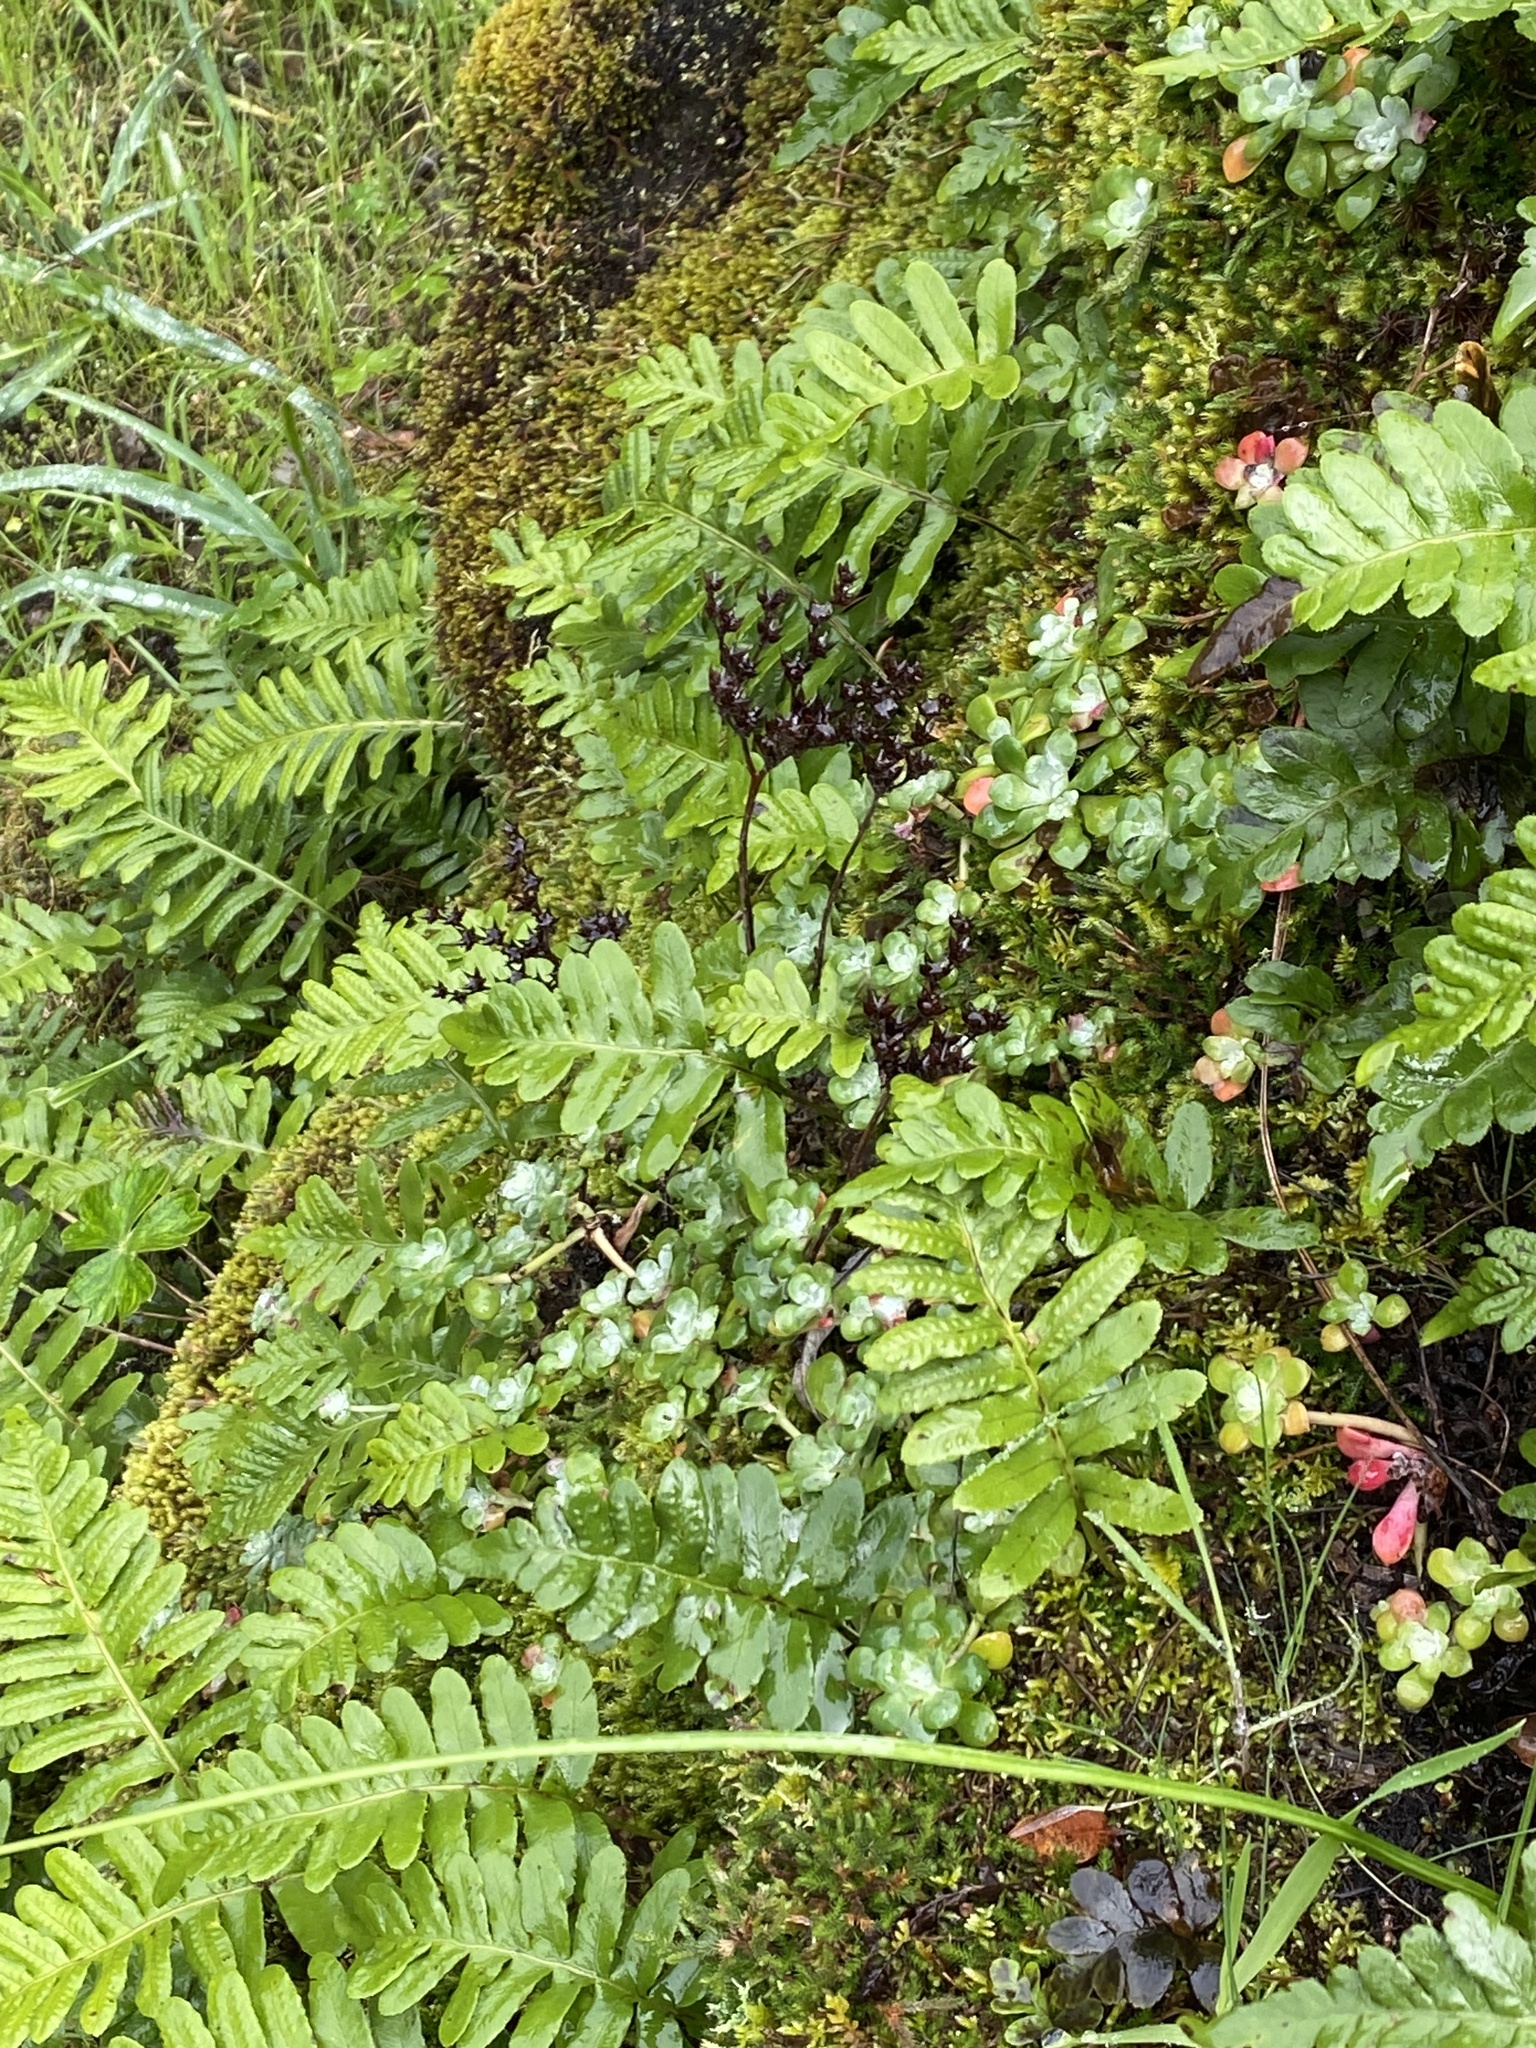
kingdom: Plantae
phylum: Tracheophyta
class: Magnoliopsida
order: Saxifragales
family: Crassulaceae
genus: Sedum
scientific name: Sedum spathulifolium
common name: Colorado stonecrop
